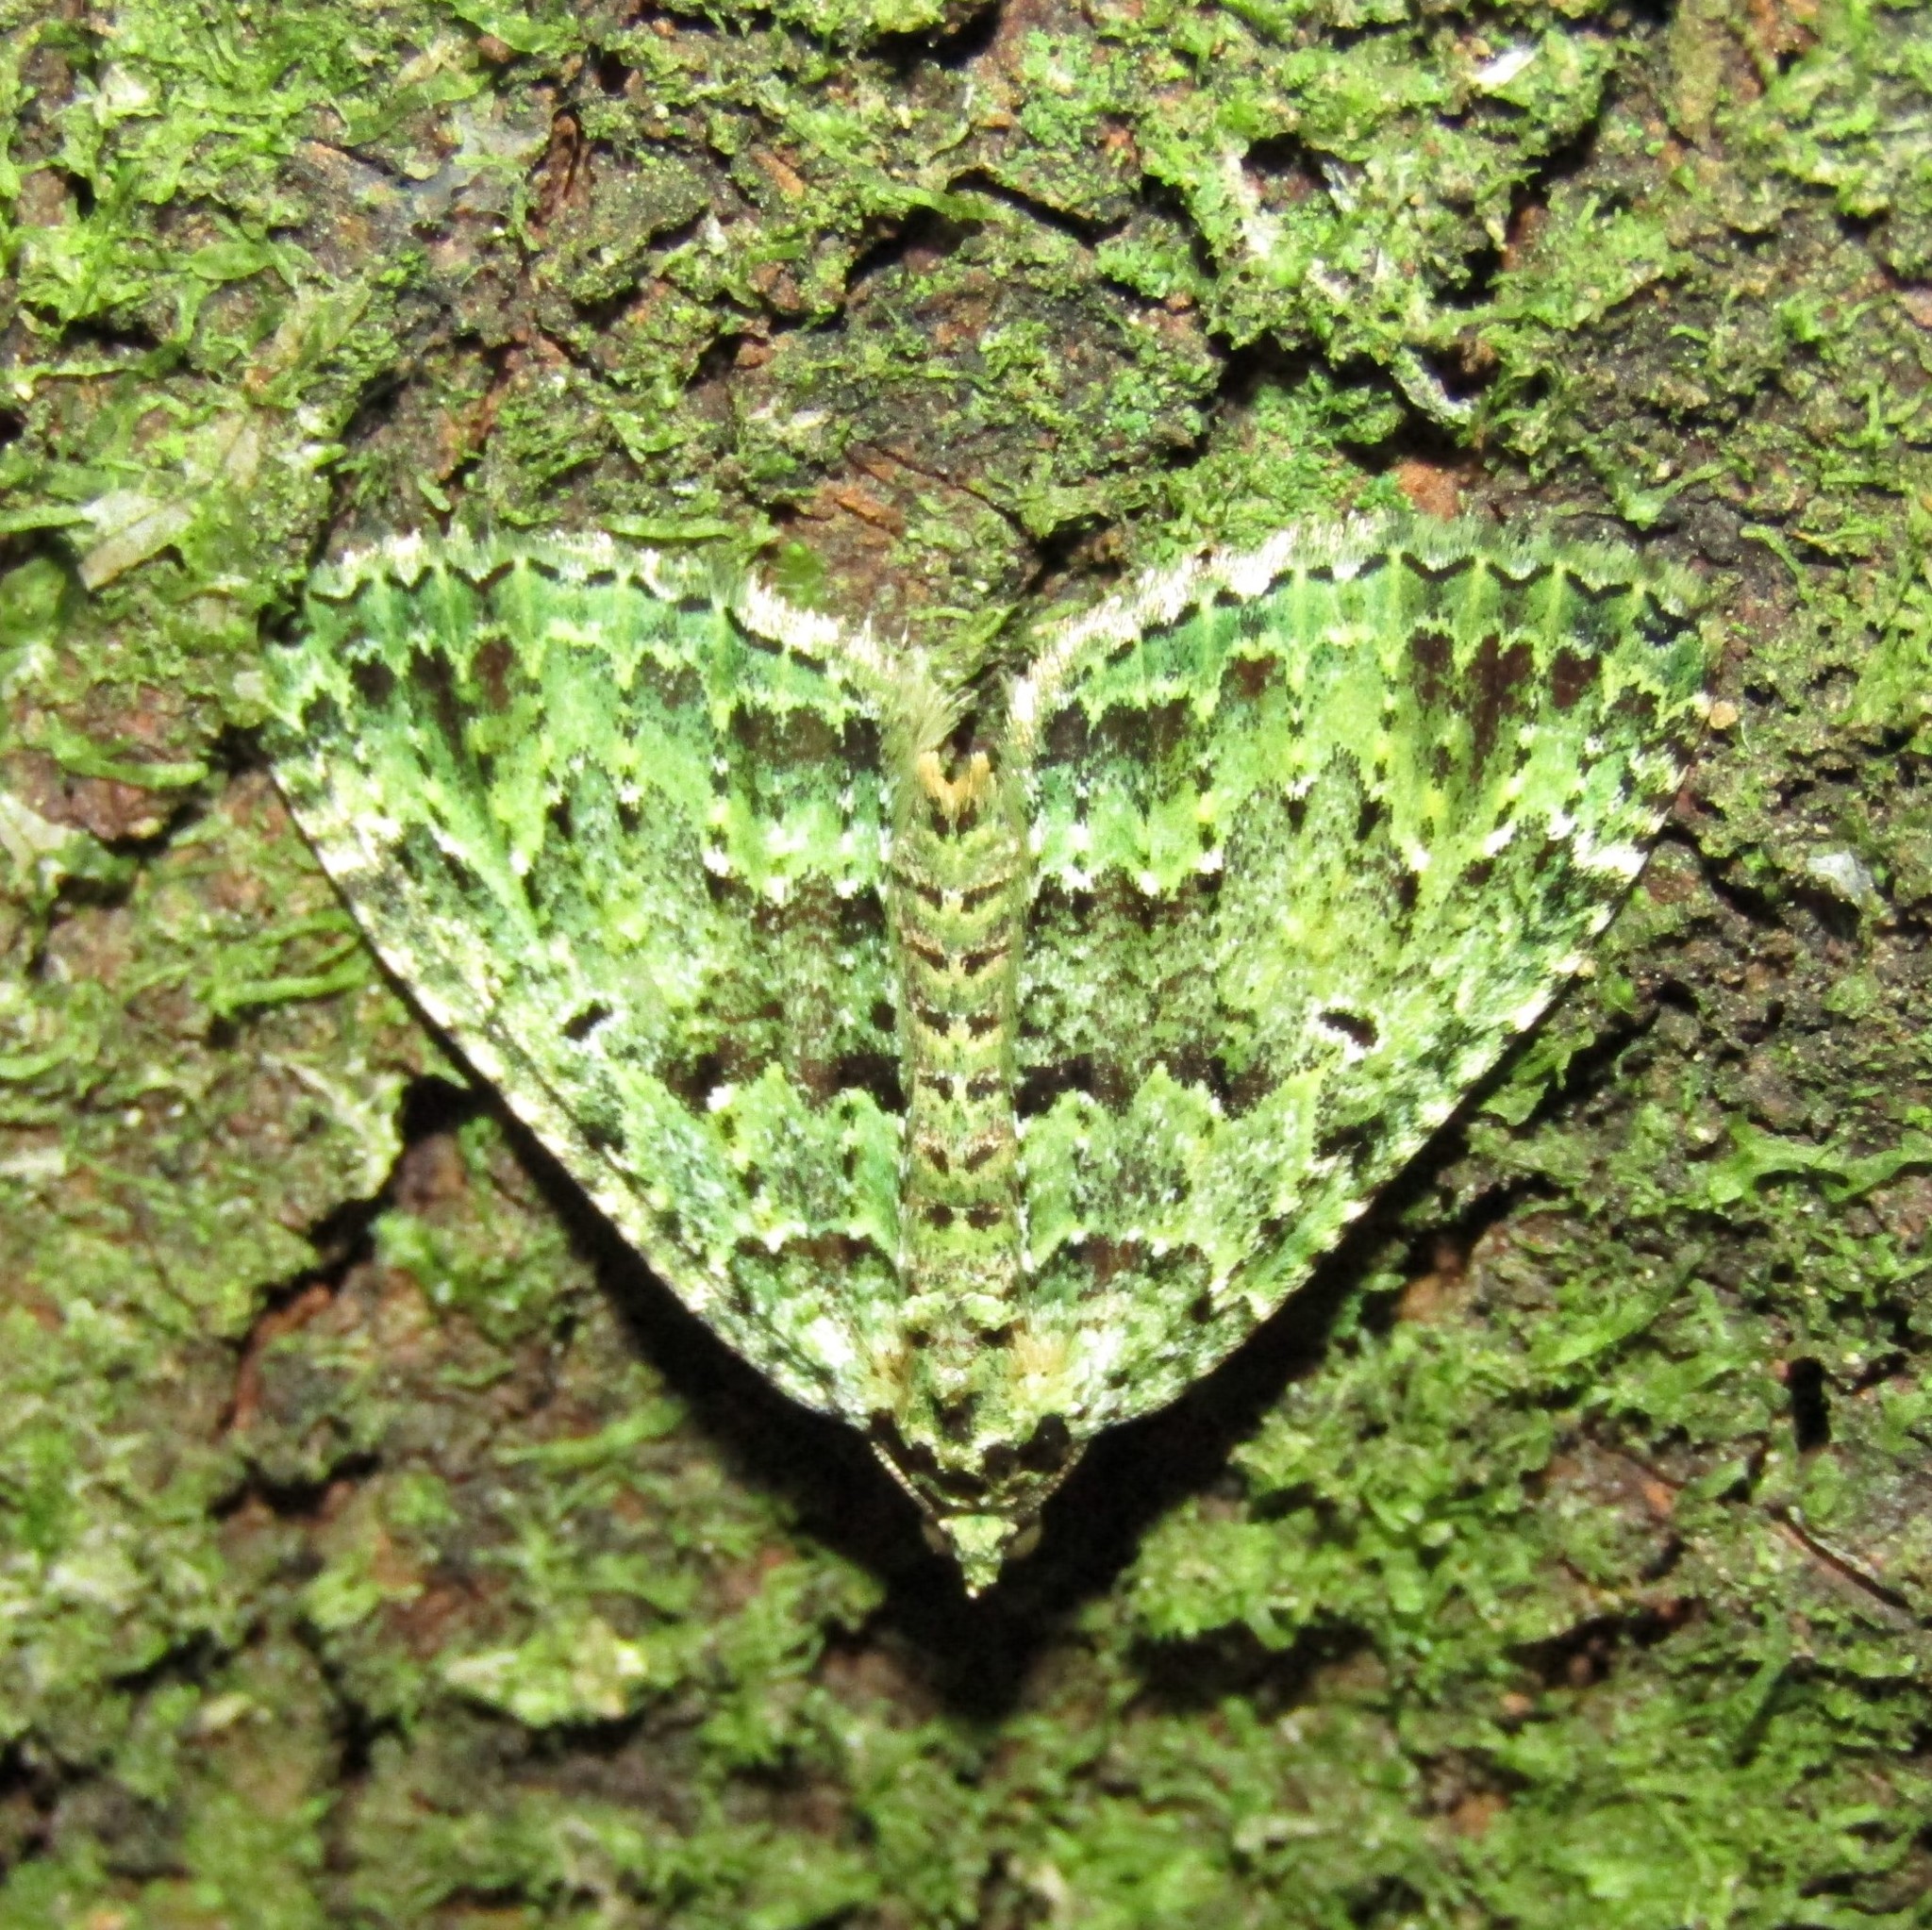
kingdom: Animalia
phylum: Arthropoda
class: Insecta
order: Lepidoptera
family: Geometridae
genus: Austrocidaria
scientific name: Austrocidaria callichlora
